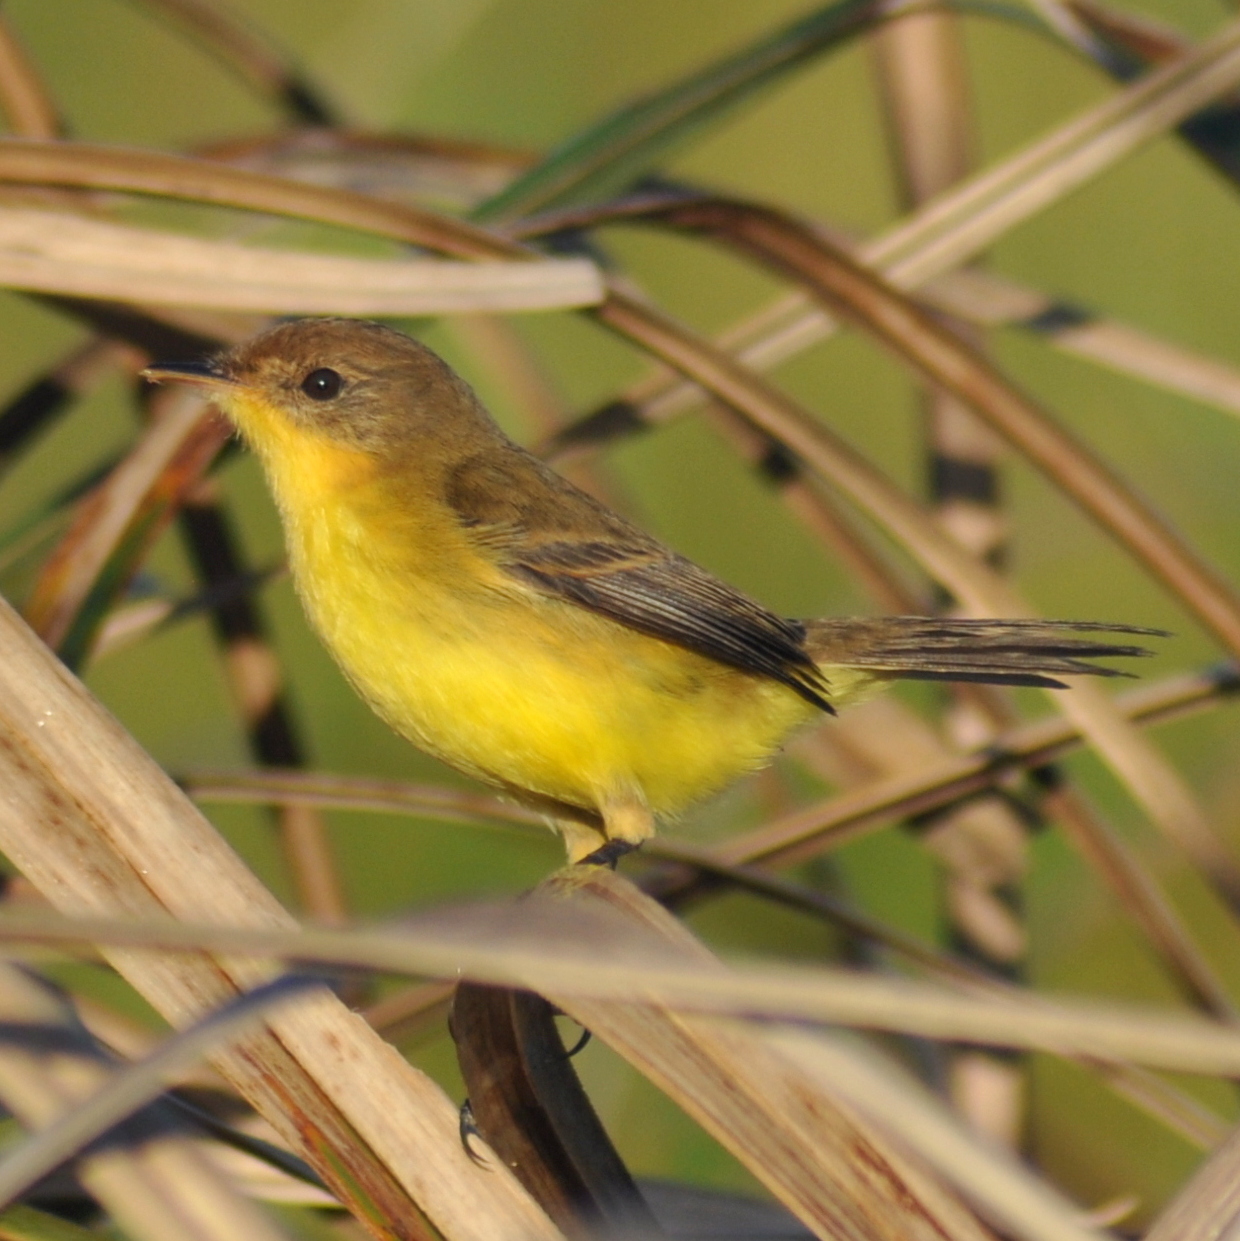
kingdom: Animalia
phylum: Chordata
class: Aves
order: Passeriformes
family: Tyrannidae
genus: Pseudocolopteryx
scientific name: Pseudocolopteryx flaviventris
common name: Warbling doradito
